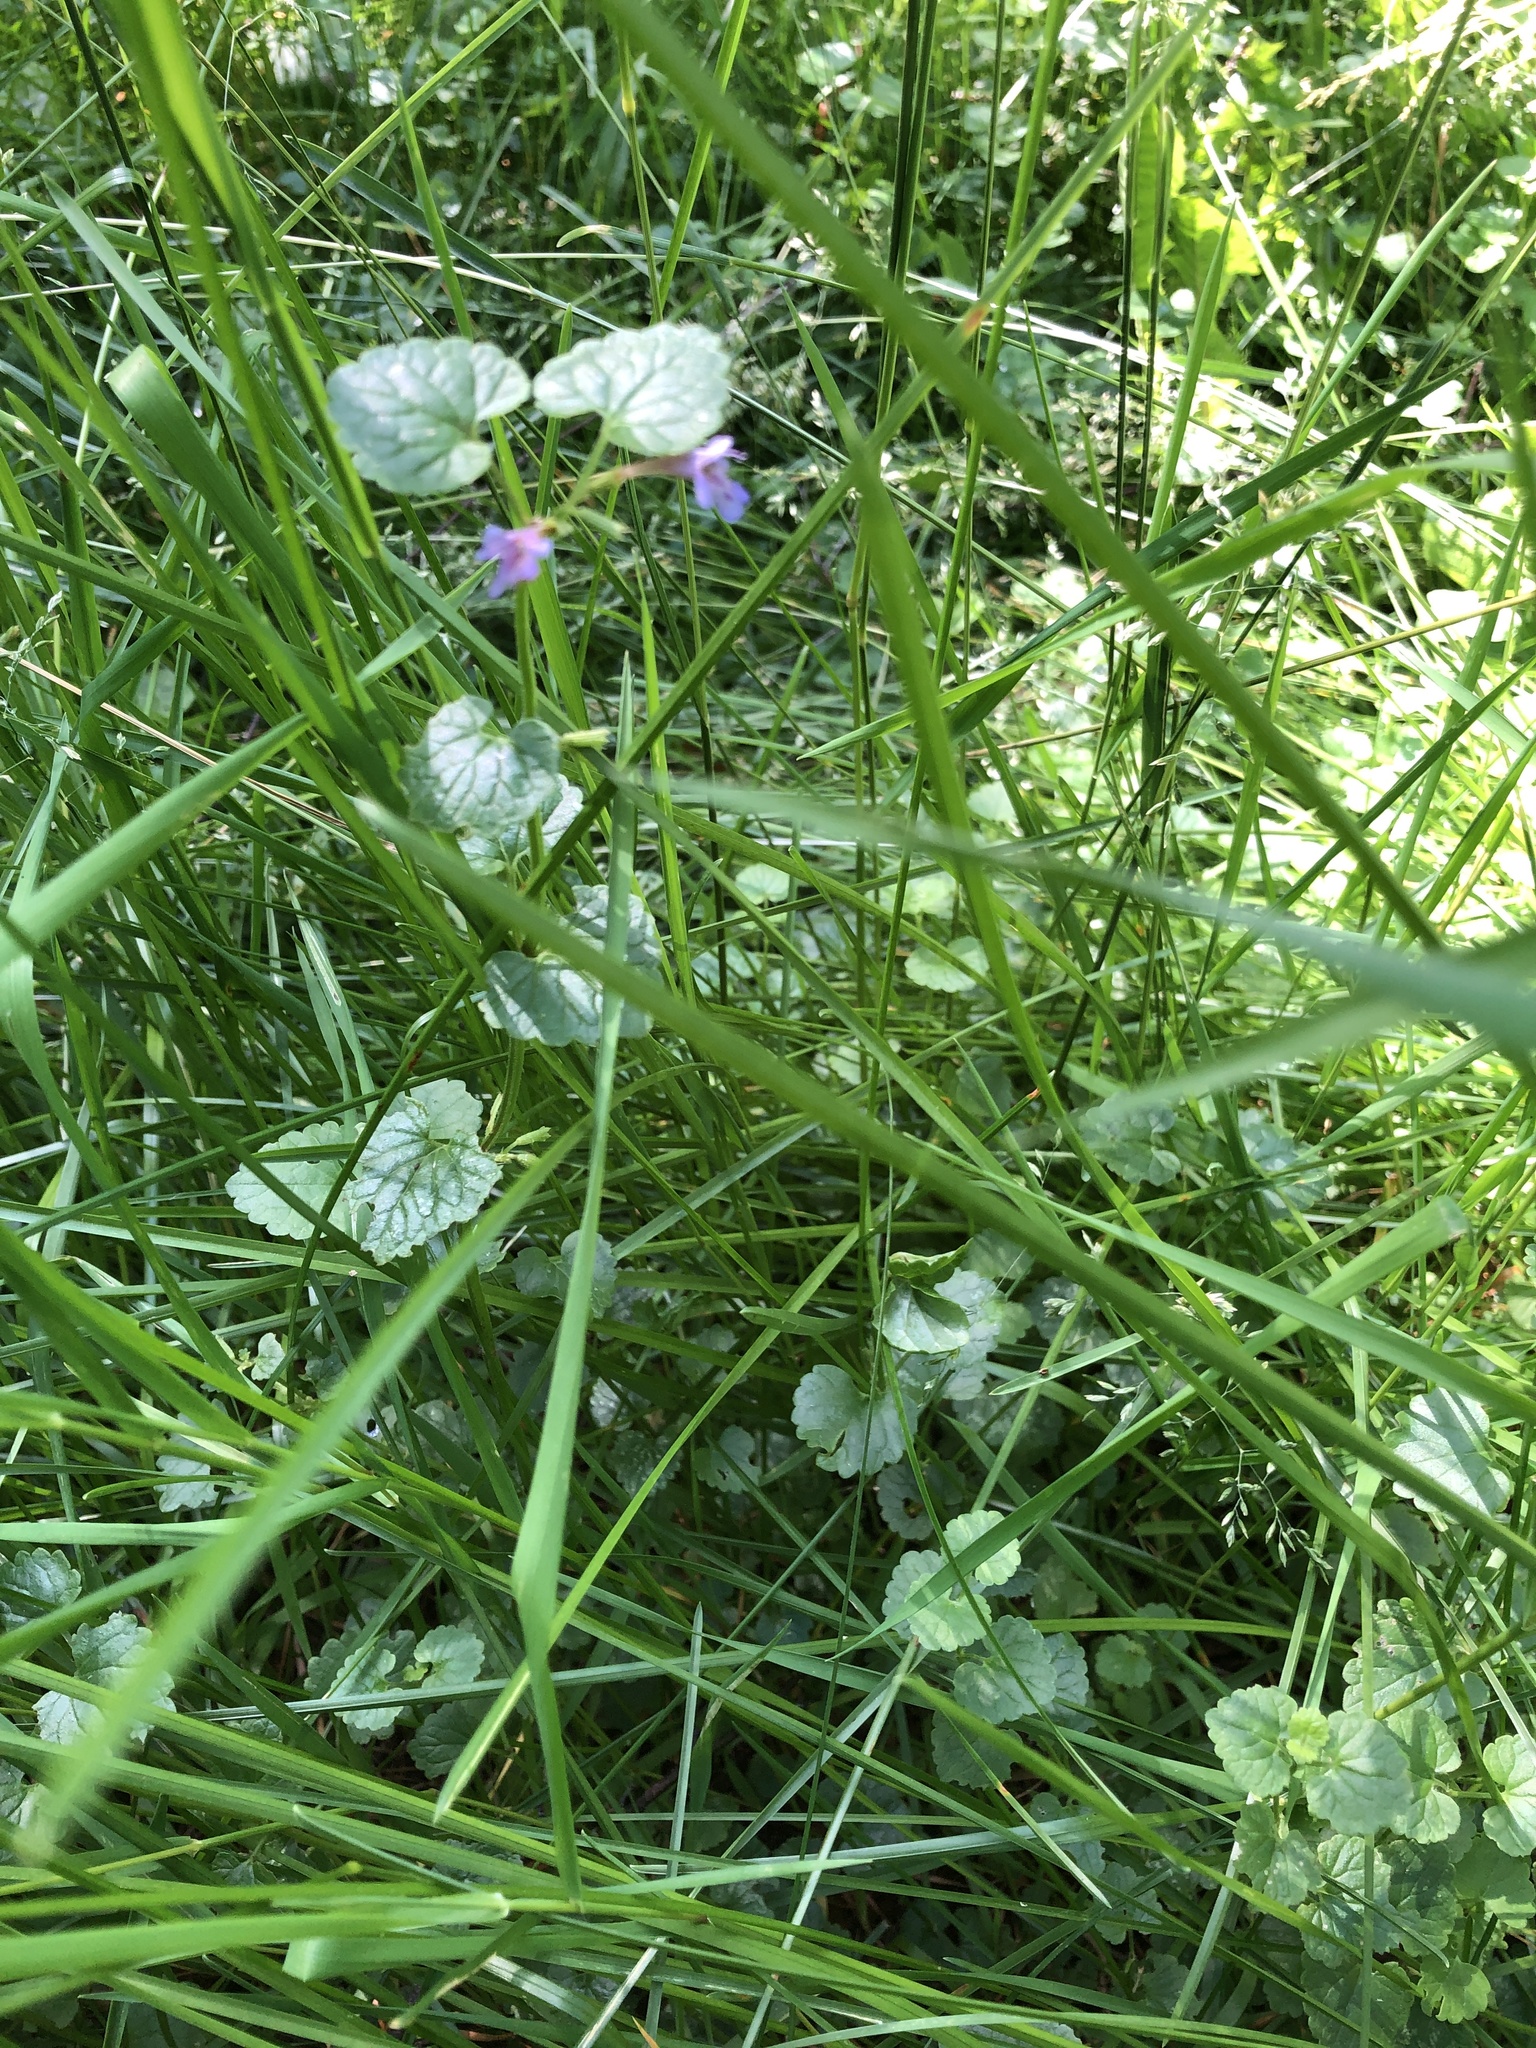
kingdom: Plantae
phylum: Tracheophyta
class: Magnoliopsida
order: Lamiales
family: Lamiaceae
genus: Glechoma
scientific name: Glechoma hederacea
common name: Ground ivy
